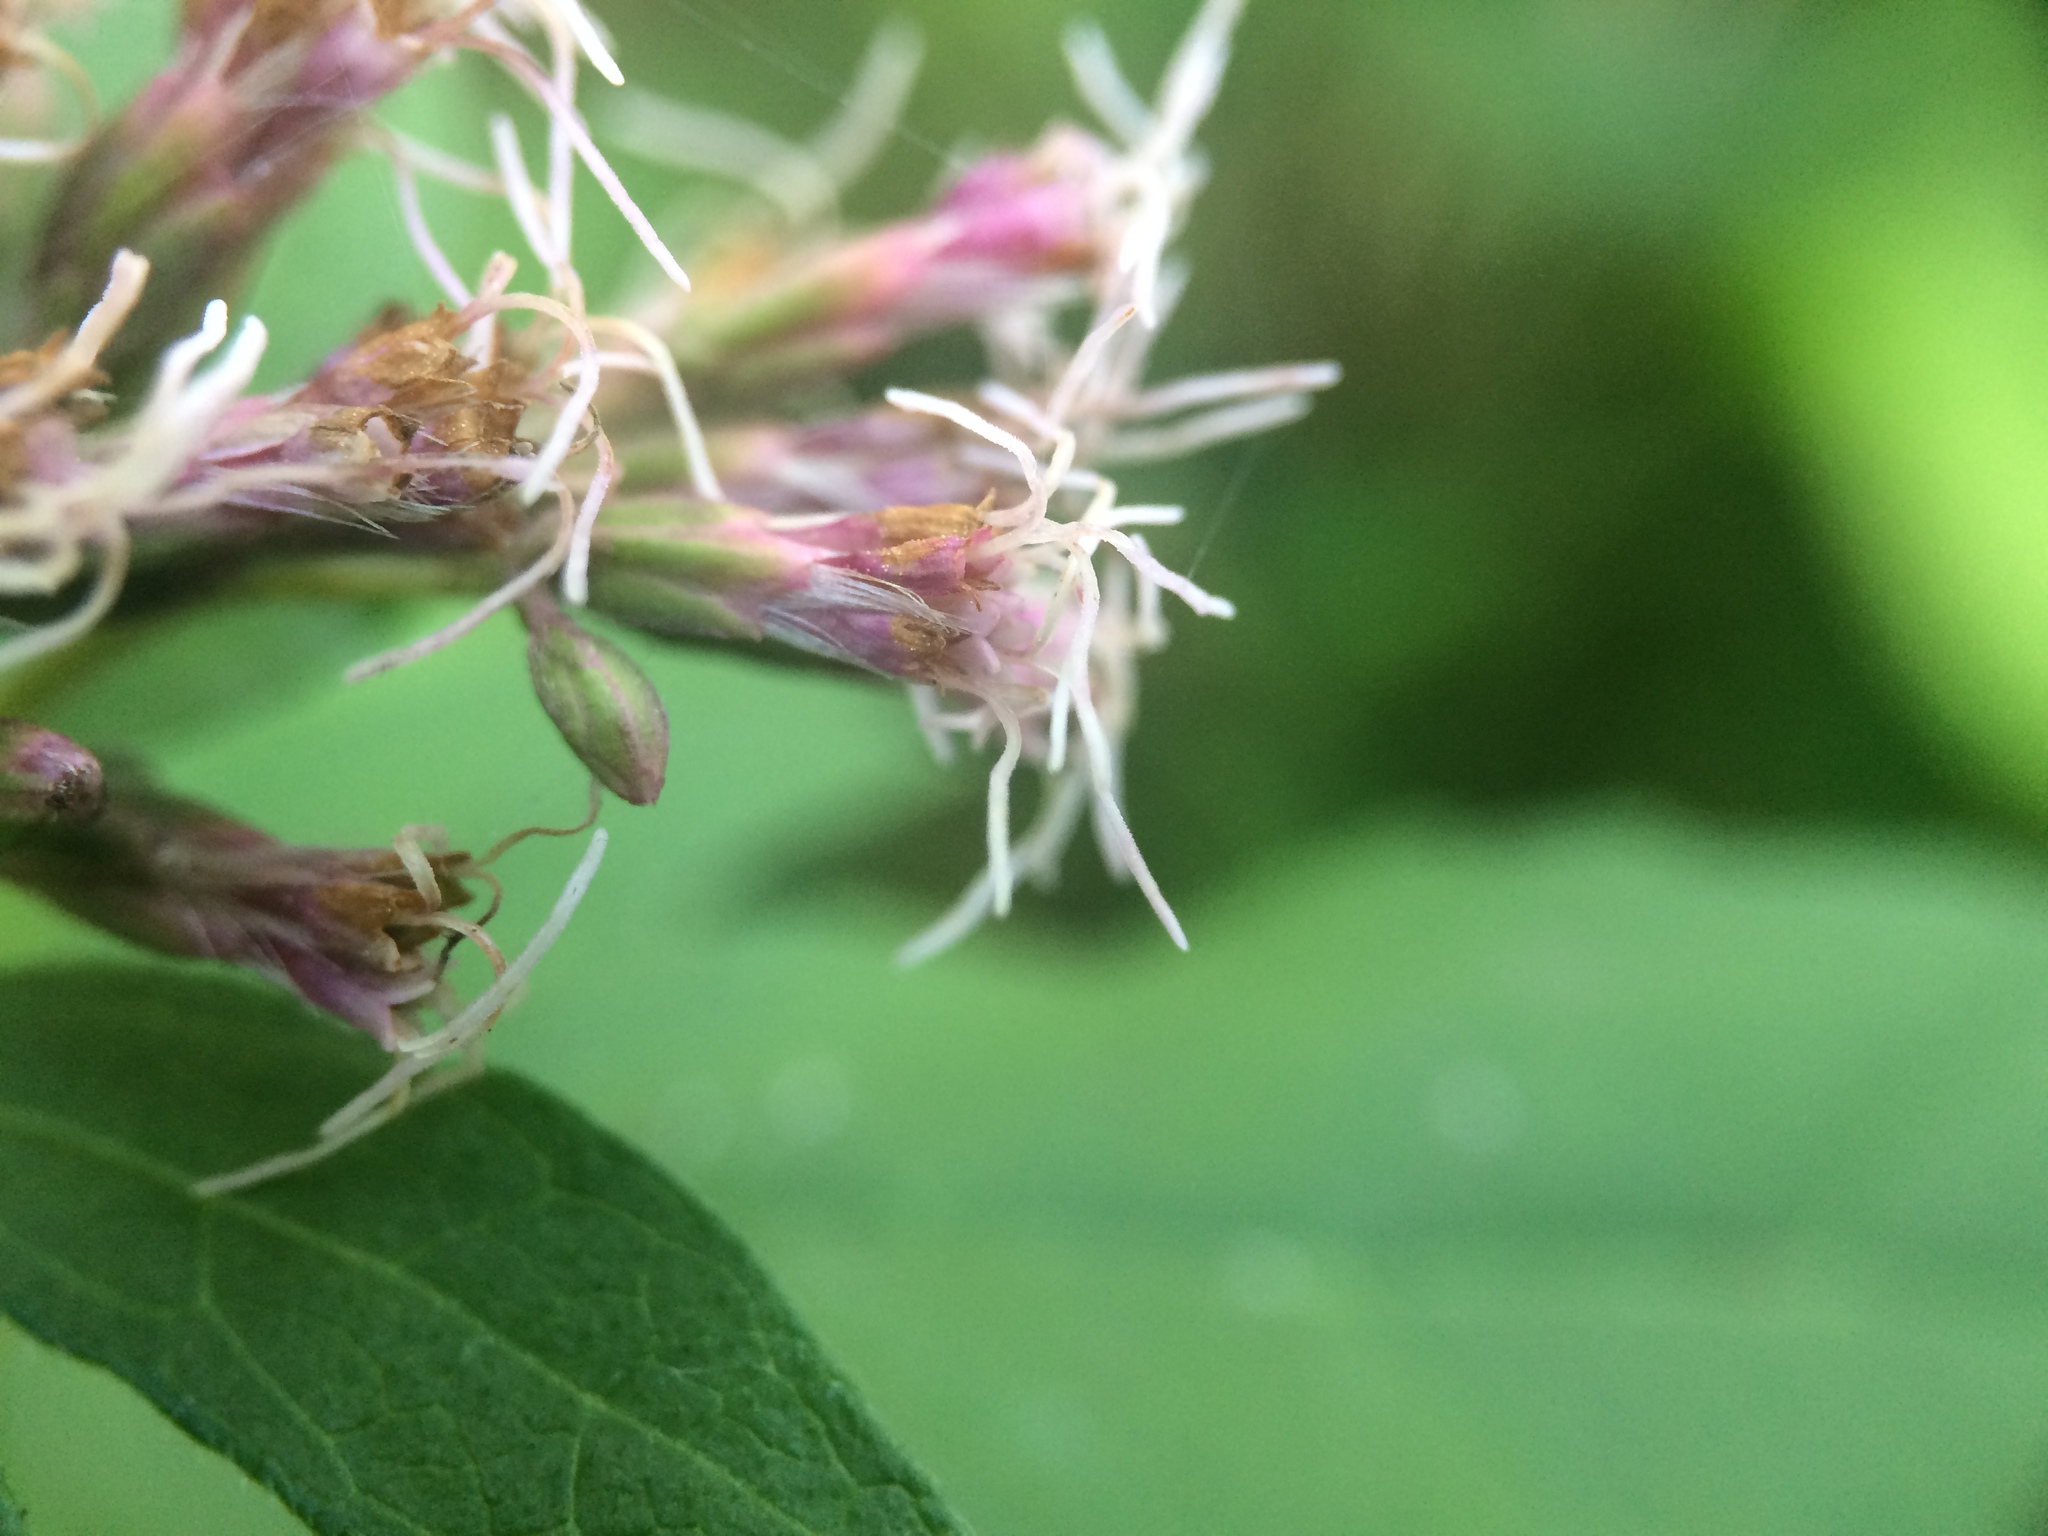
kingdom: Plantae
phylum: Tracheophyta
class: Magnoliopsida
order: Asterales
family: Asteraceae
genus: Eupatorium
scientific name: Eupatorium cannabinum
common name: Hemp-agrimony
